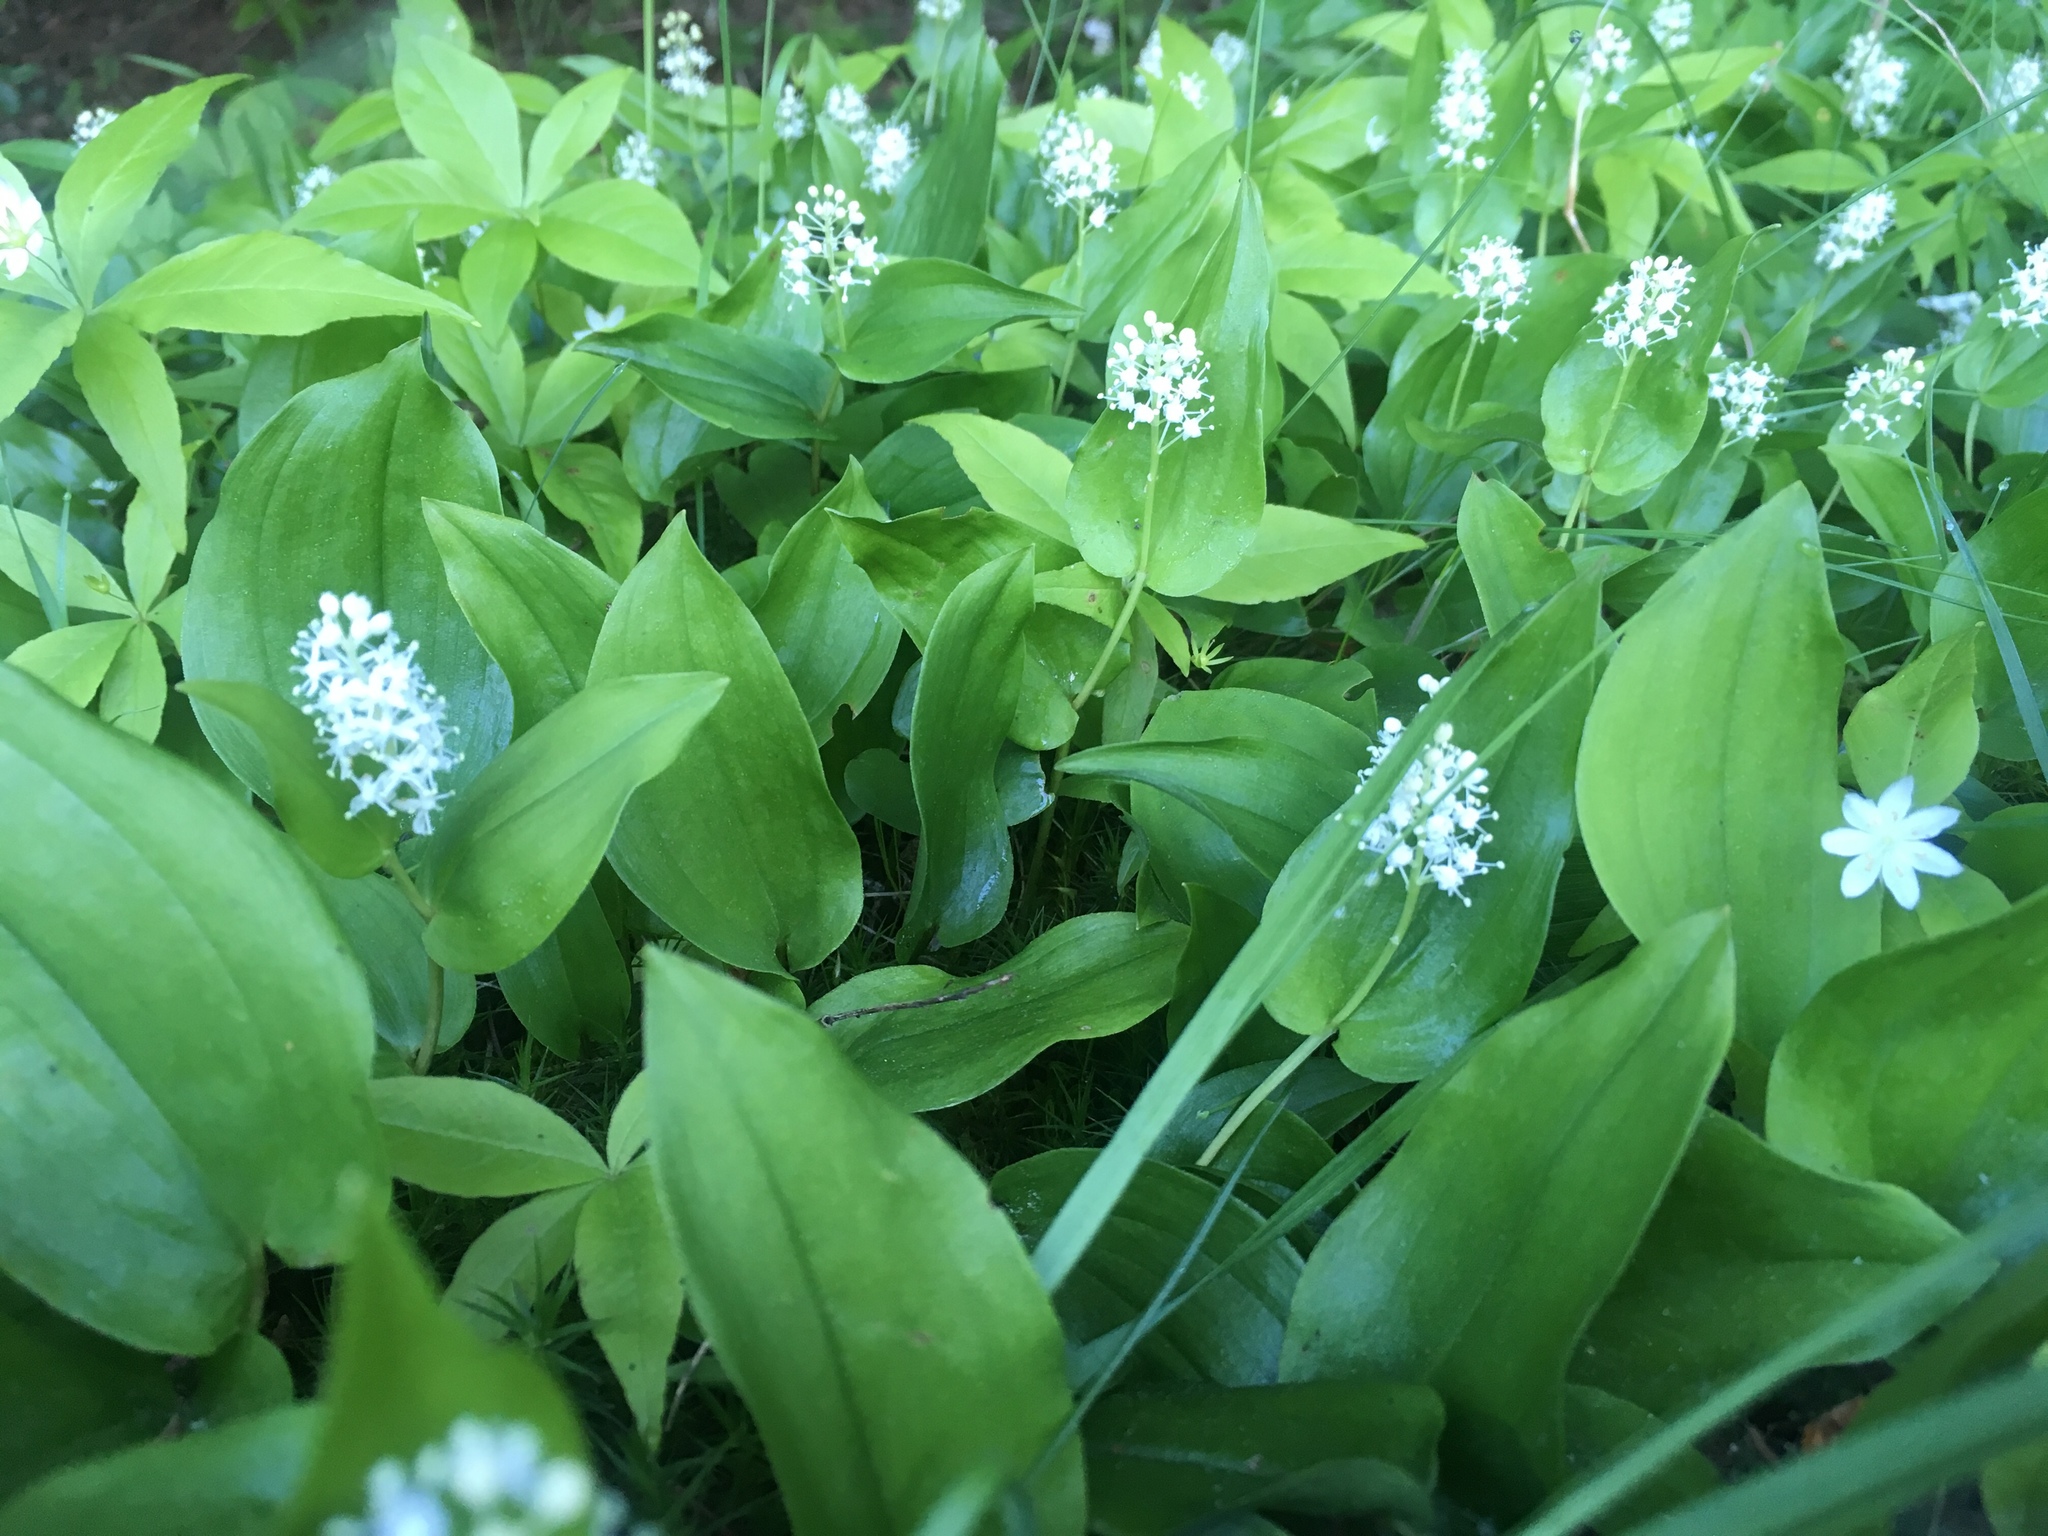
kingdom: Plantae
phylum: Tracheophyta
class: Liliopsida
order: Asparagales
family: Asparagaceae
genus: Maianthemum
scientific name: Maianthemum canadense
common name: False lily-of-the-valley
